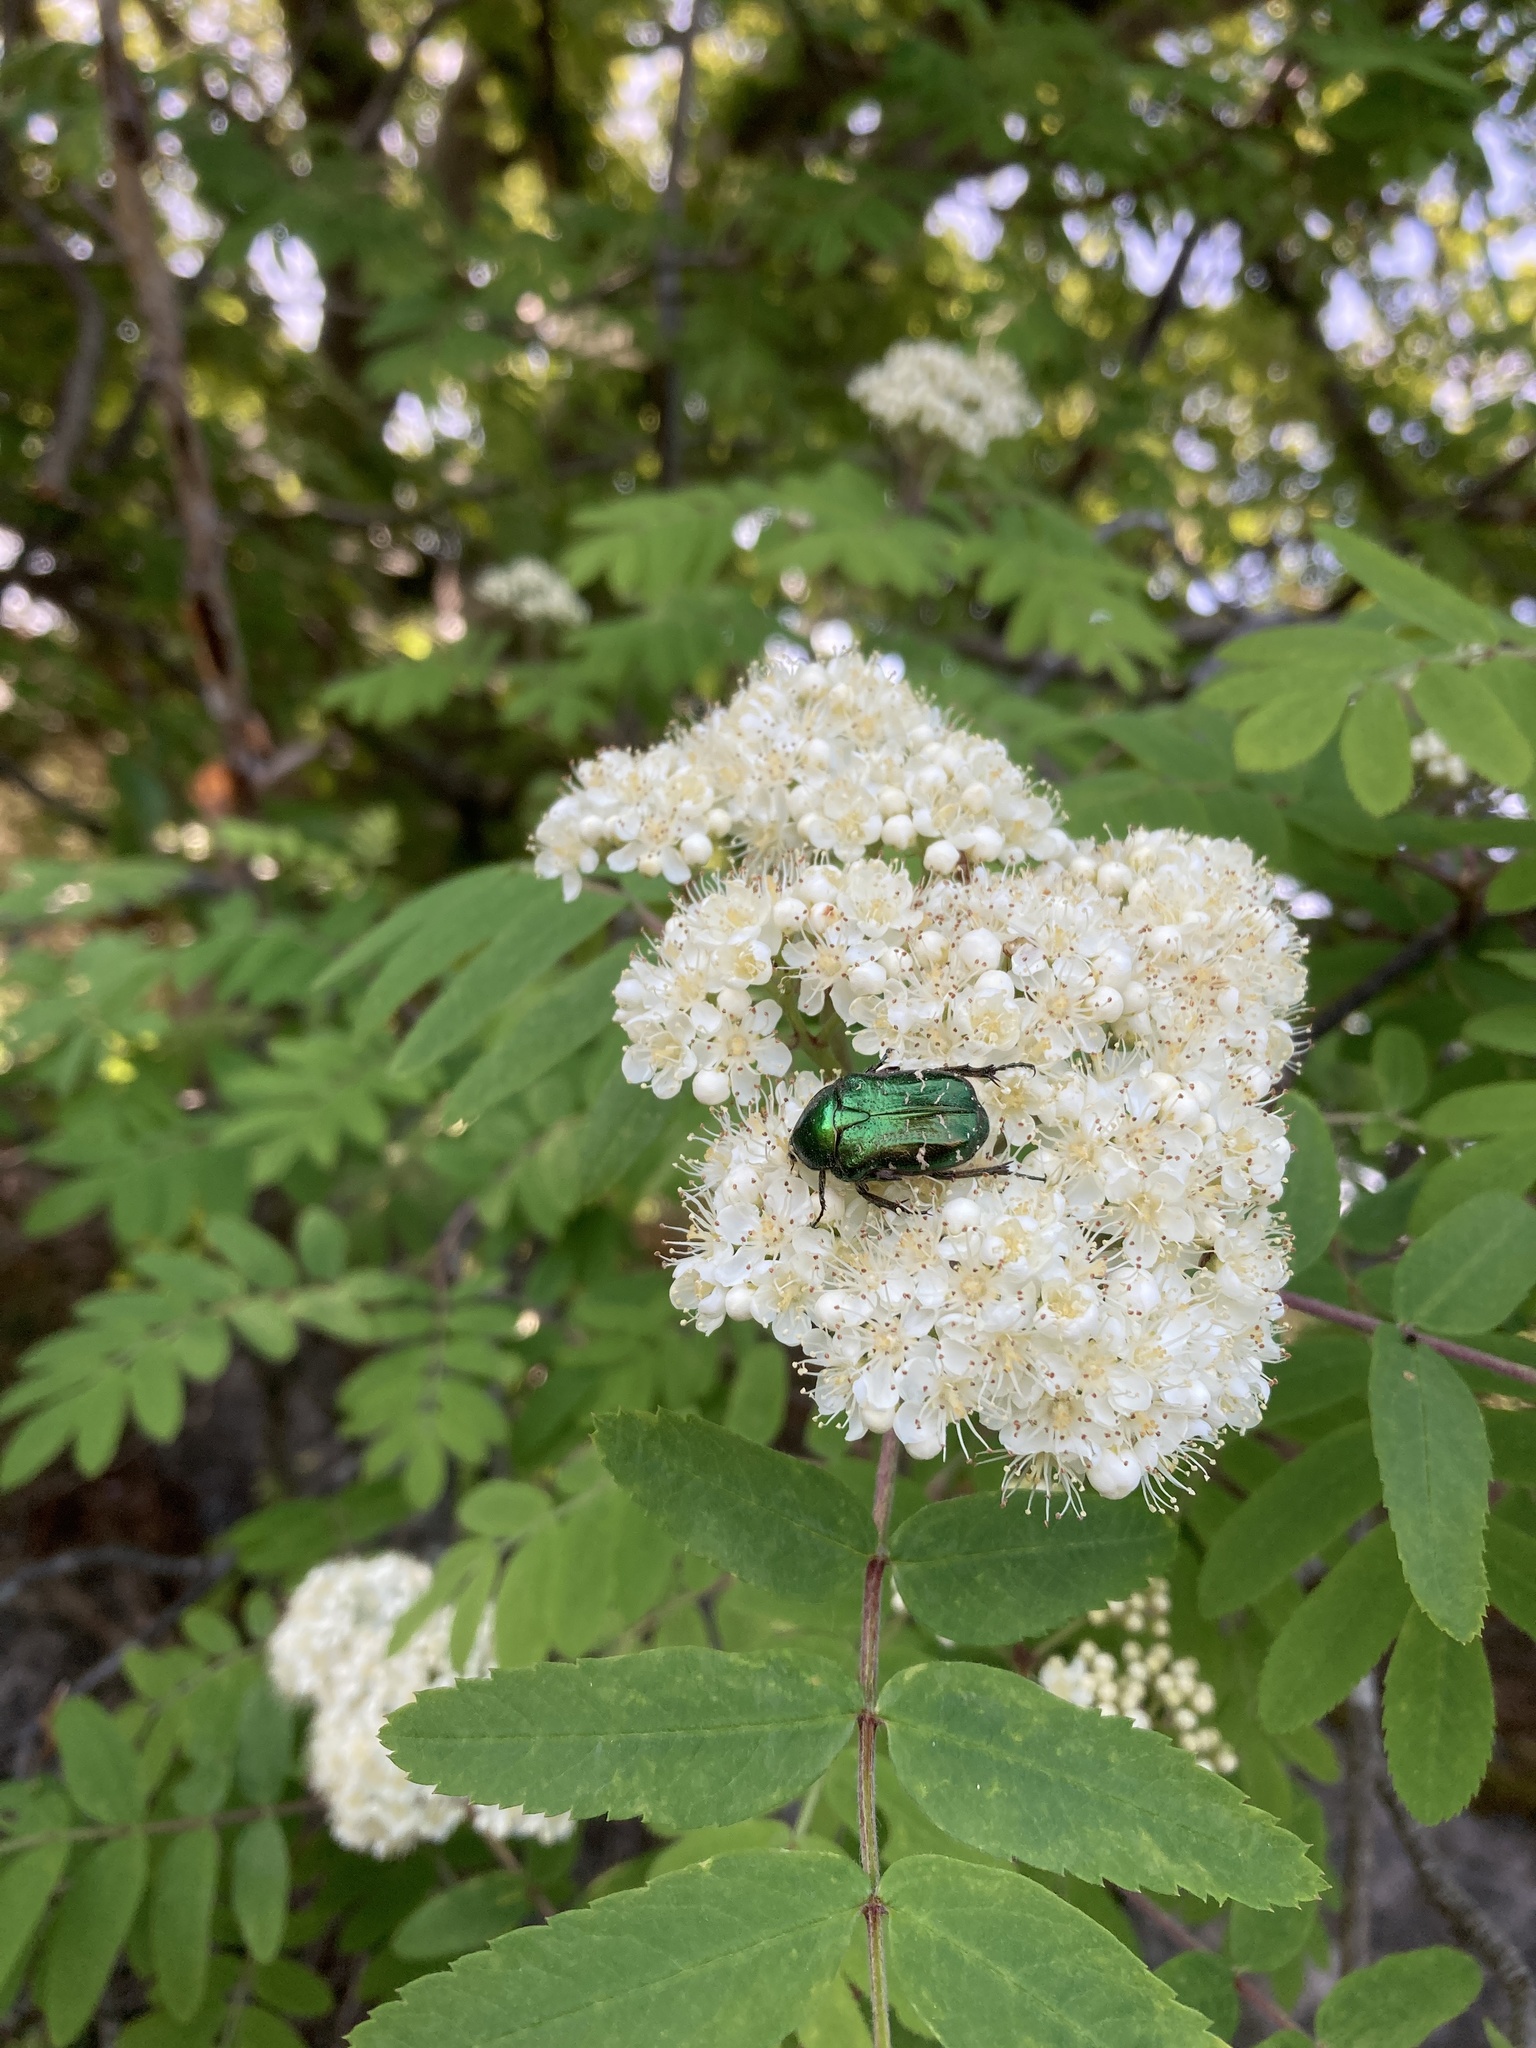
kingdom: Animalia
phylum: Arthropoda
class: Insecta
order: Coleoptera
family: Scarabaeidae
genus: Cetonia
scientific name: Cetonia aurata
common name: Rose chafer
